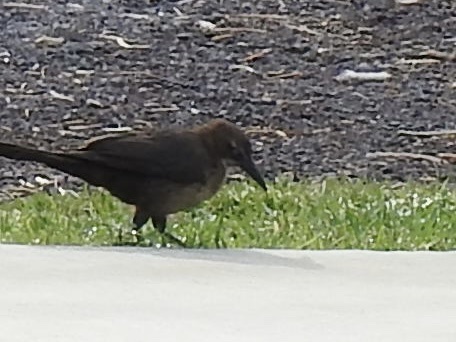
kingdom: Animalia
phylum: Chordata
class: Aves
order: Passeriformes
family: Icteridae
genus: Quiscalus
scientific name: Quiscalus mexicanus
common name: Great-tailed grackle
